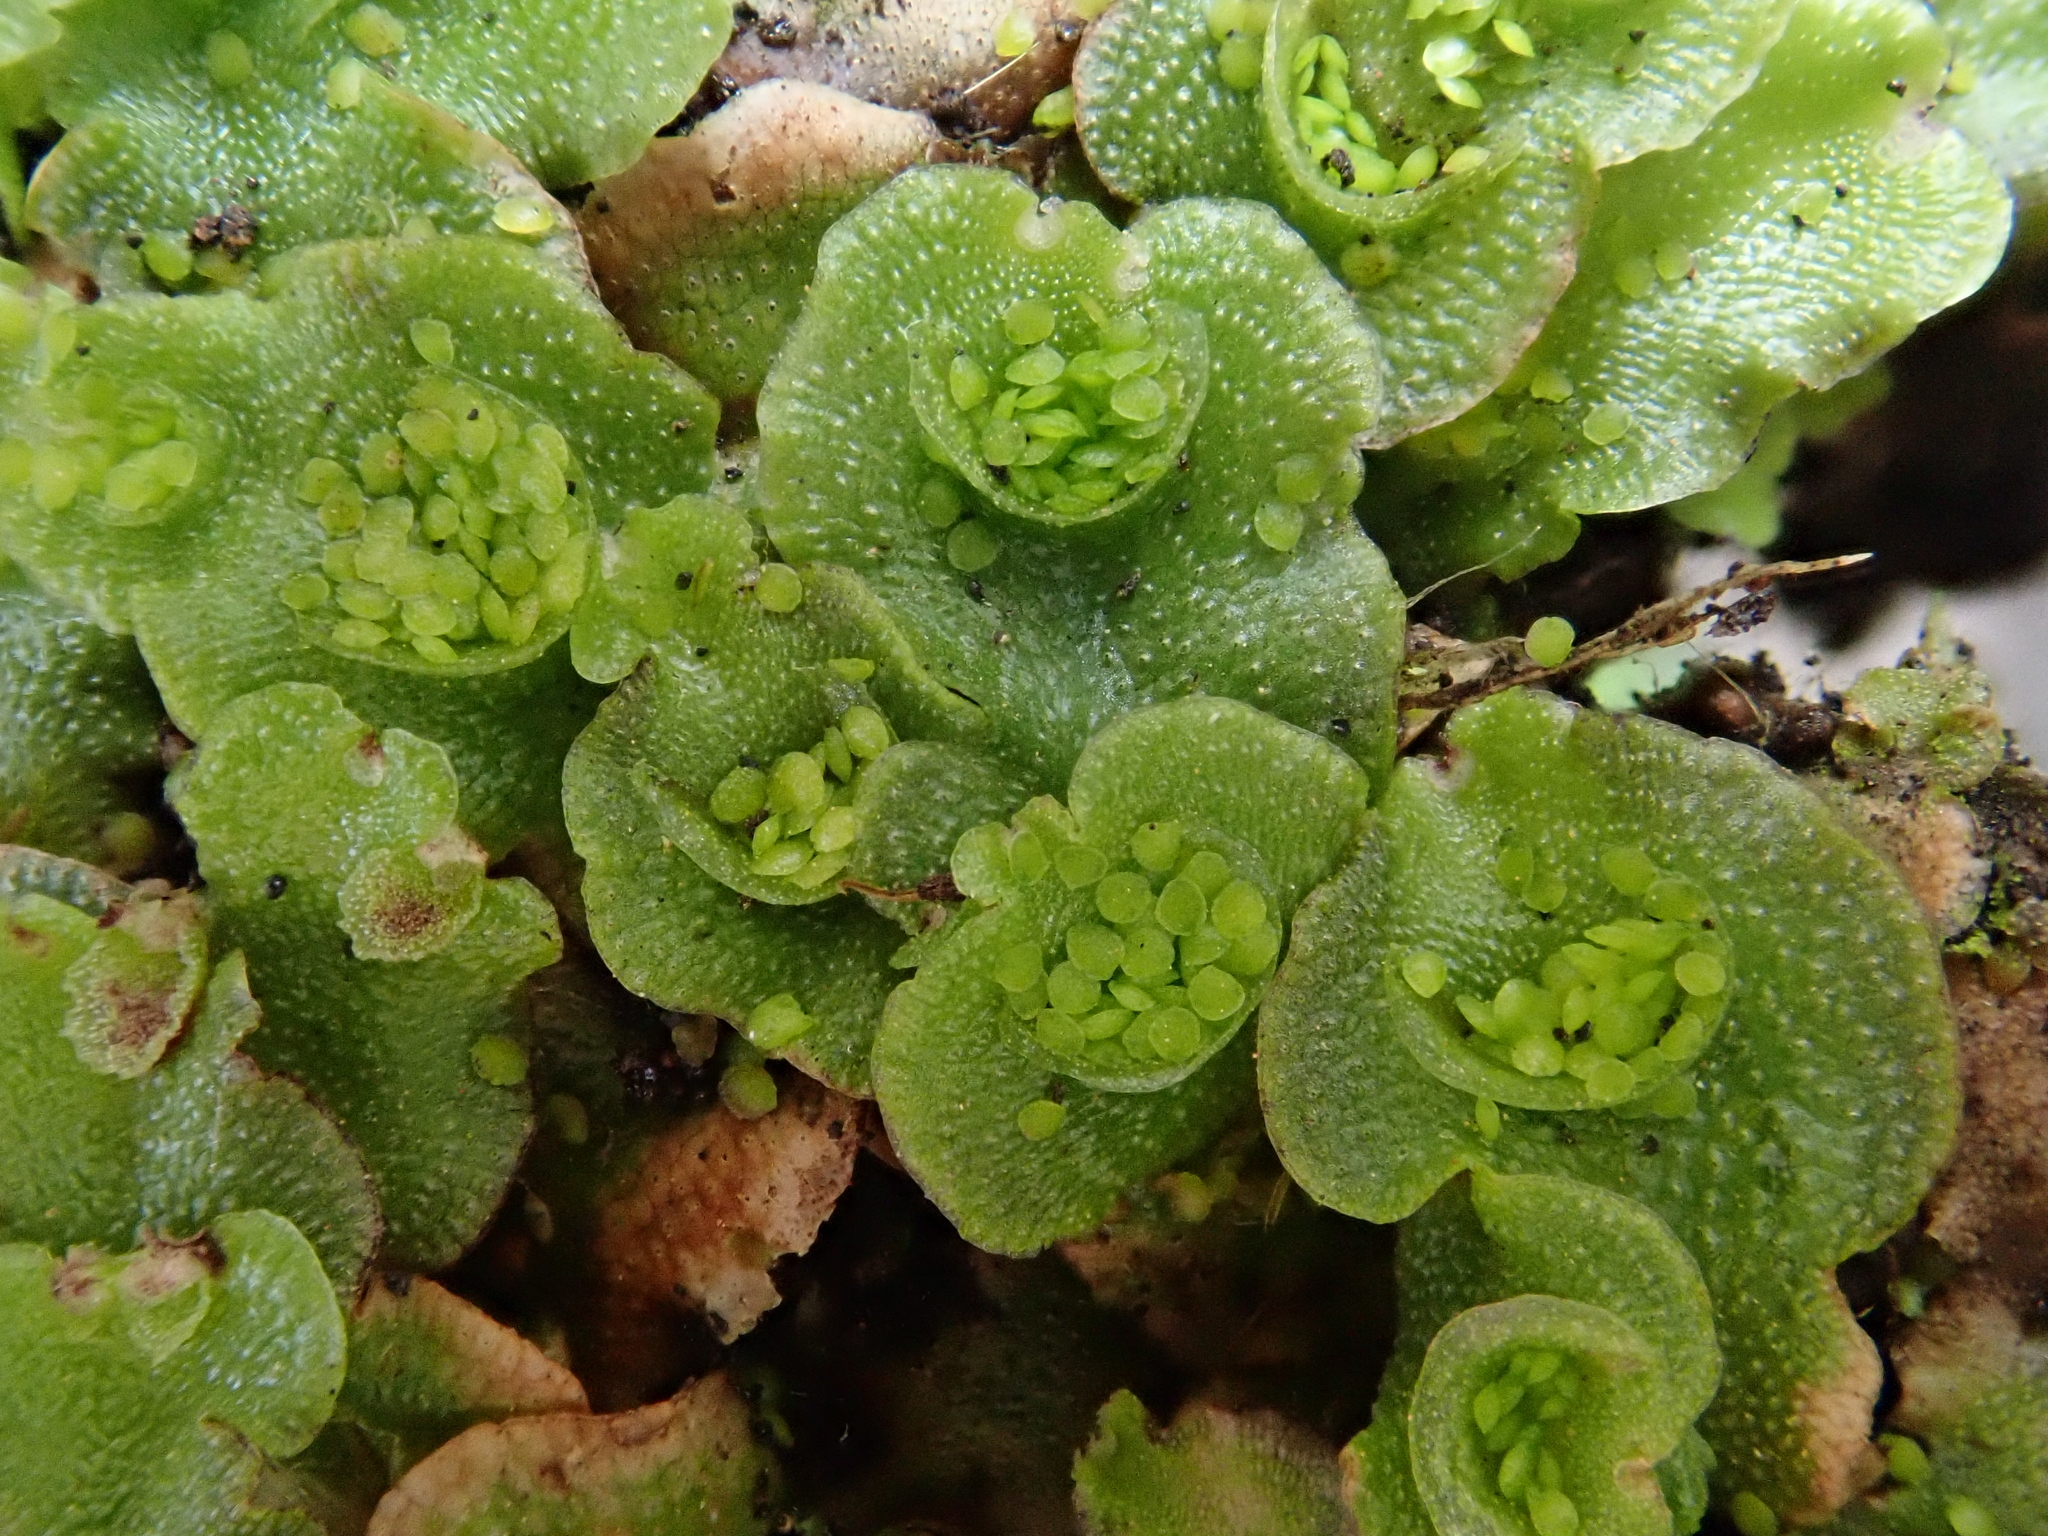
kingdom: Plantae
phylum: Marchantiophyta
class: Marchantiopsida
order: Lunulariales
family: Lunulariaceae
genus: Lunularia
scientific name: Lunularia cruciata
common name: Crescent-cup liverwort
